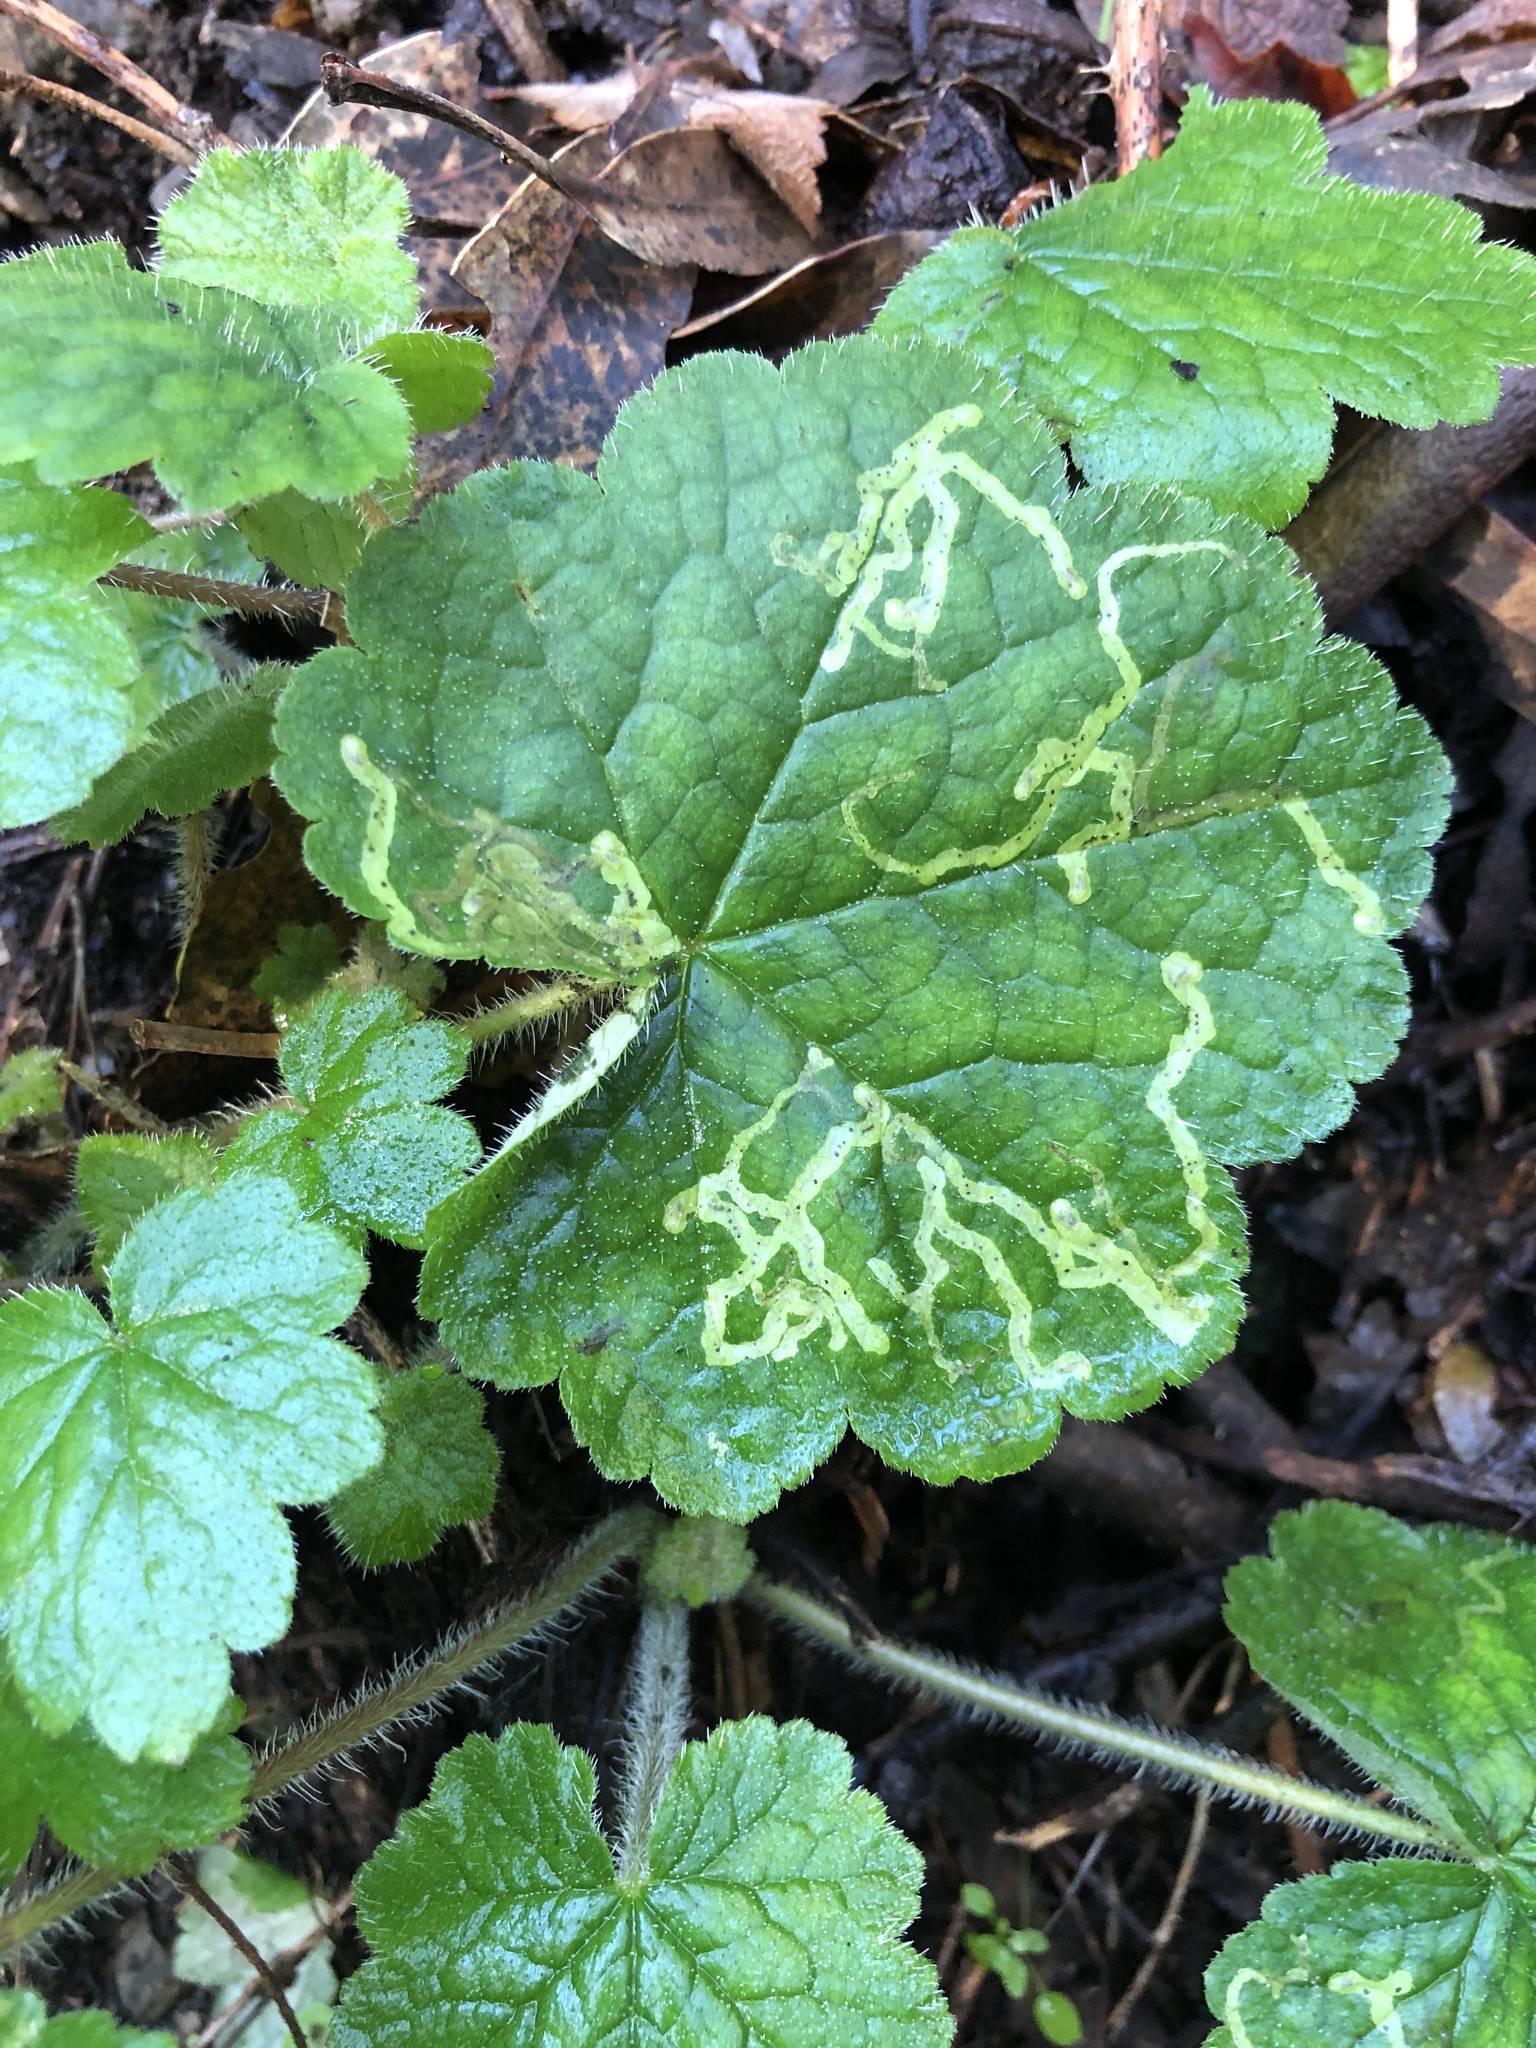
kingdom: Animalia
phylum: Arthropoda
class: Insecta
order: Diptera
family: Agromyzidae
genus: Phytomyza
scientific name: Phytomyza tiarellae
